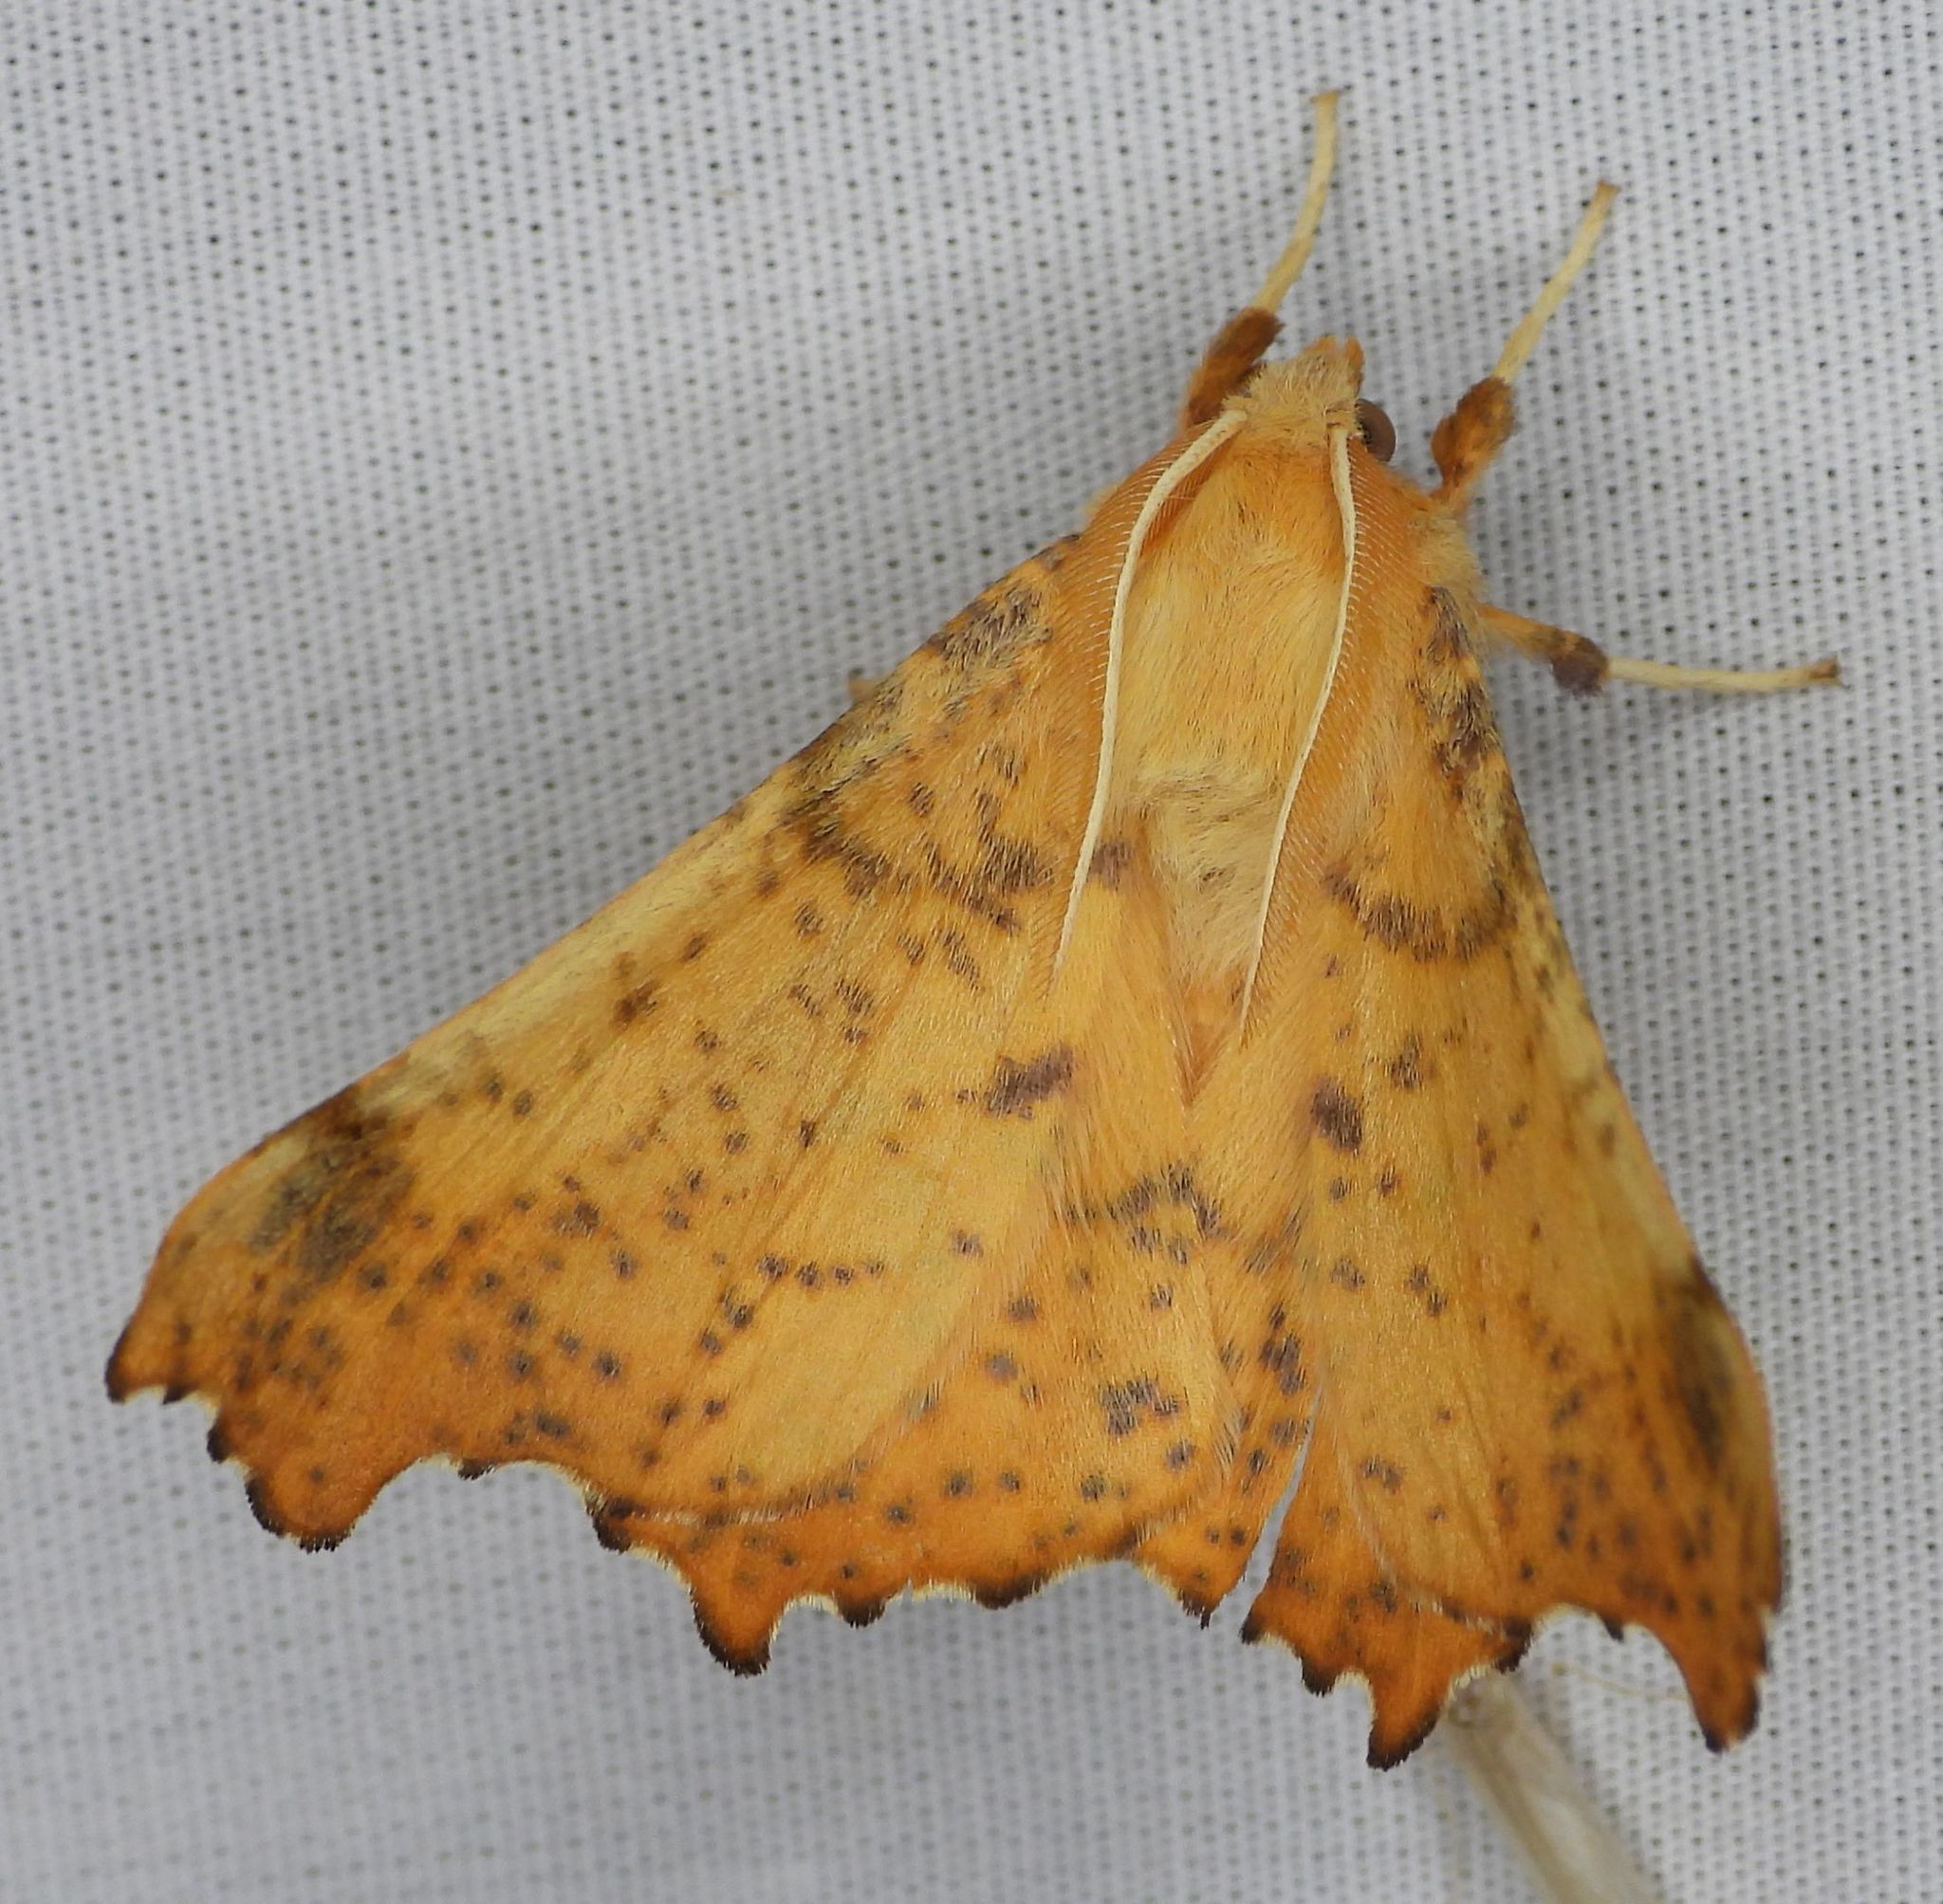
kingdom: Animalia
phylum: Arthropoda
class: Insecta
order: Lepidoptera
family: Geometridae
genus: Ennomos
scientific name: Ennomos magnaria
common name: Maple spanworm
